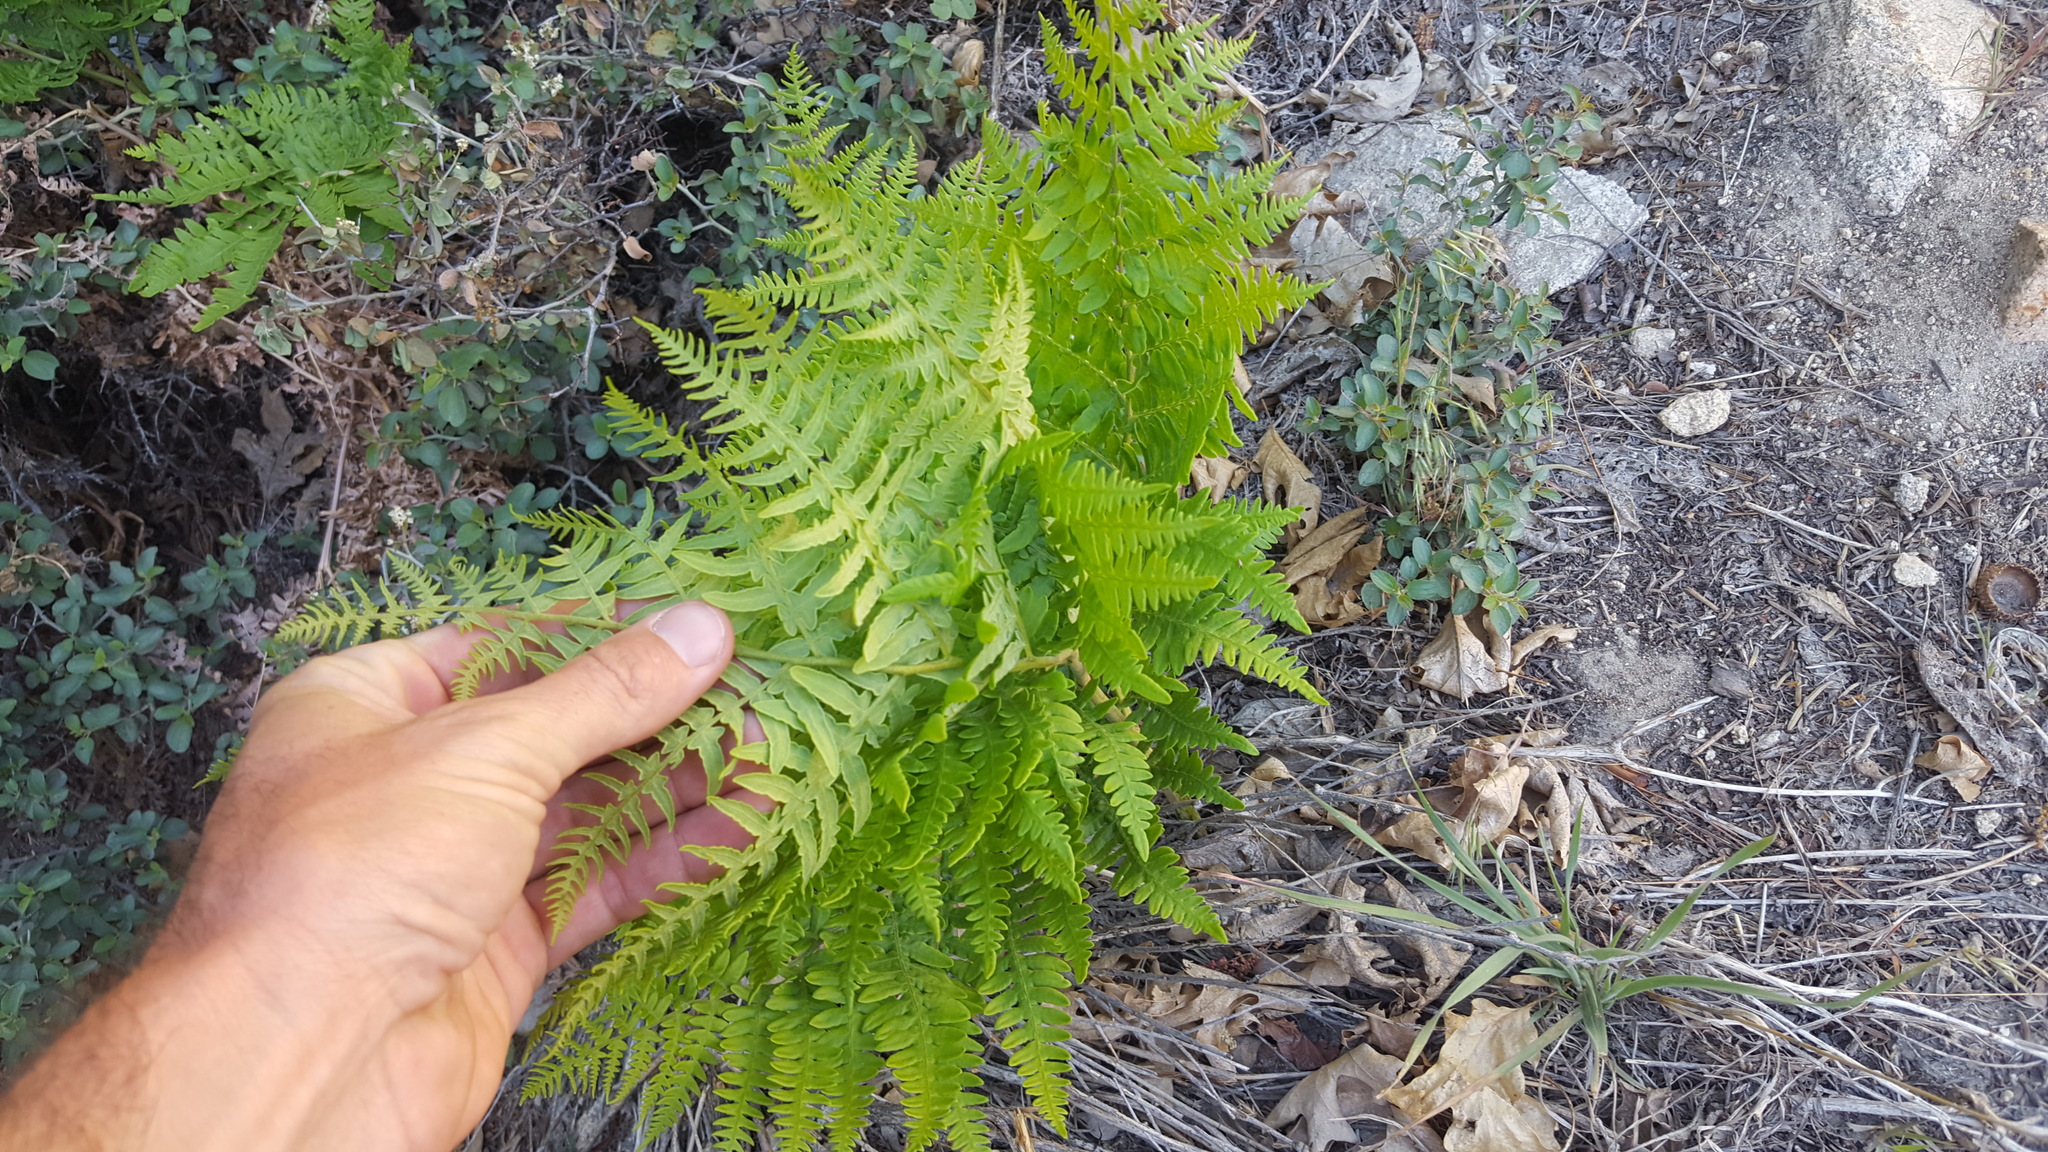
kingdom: Plantae
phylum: Tracheophyta
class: Polypodiopsida
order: Polypodiales
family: Dennstaedtiaceae
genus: Pteridium
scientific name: Pteridium aquilinum
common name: Bracken
